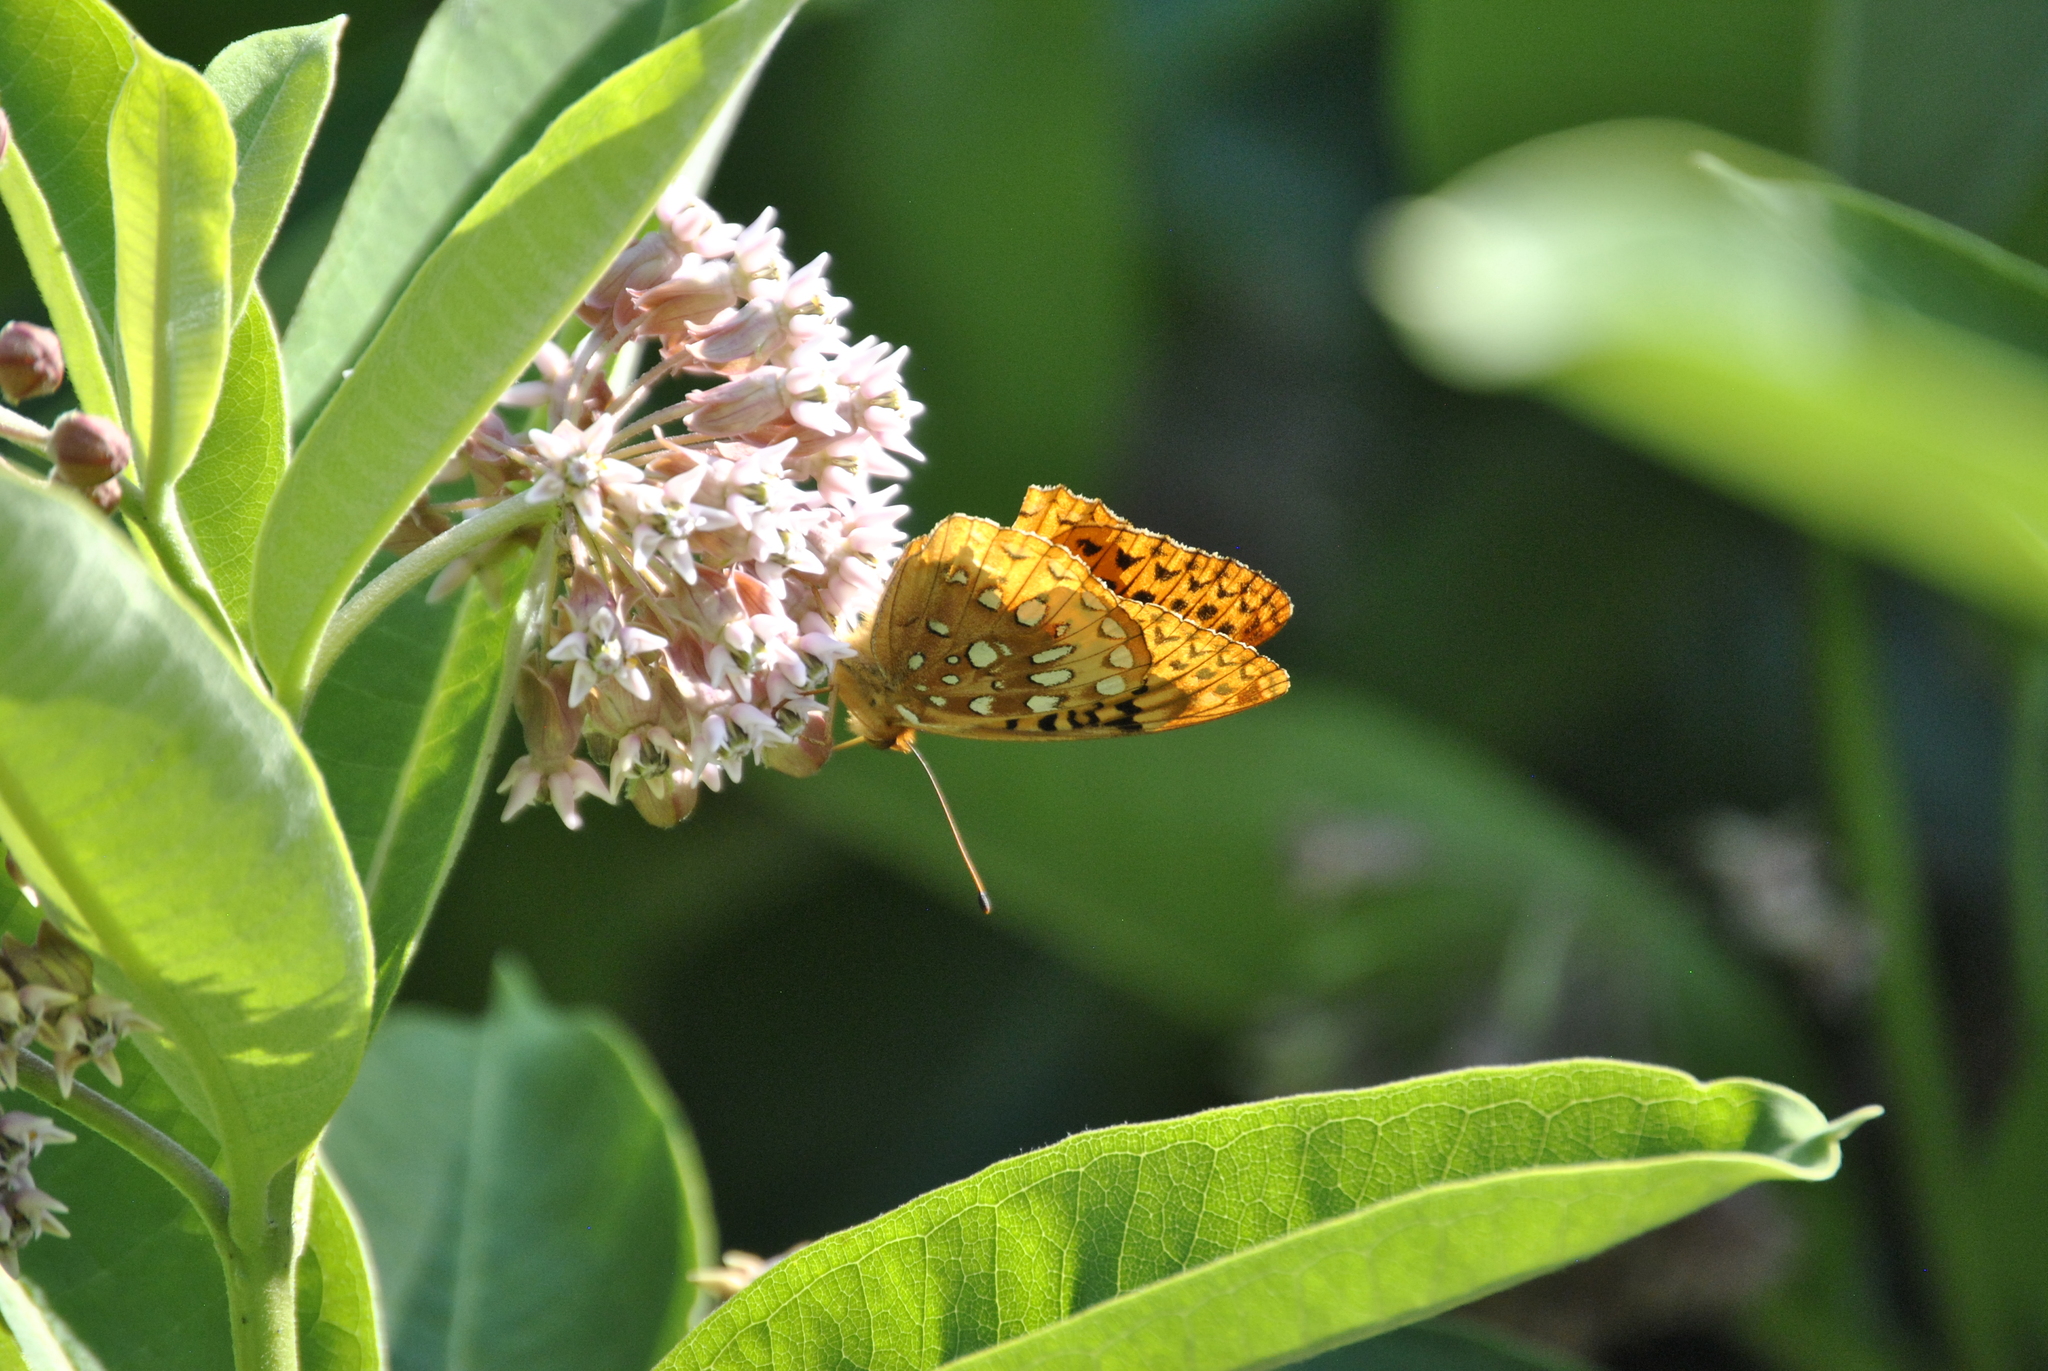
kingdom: Animalia
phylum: Arthropoda
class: Insecta
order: Lepidoptera
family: Nymphalidae
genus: Speyeria
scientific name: Speyeria cybele
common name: Great spangled fritillary
